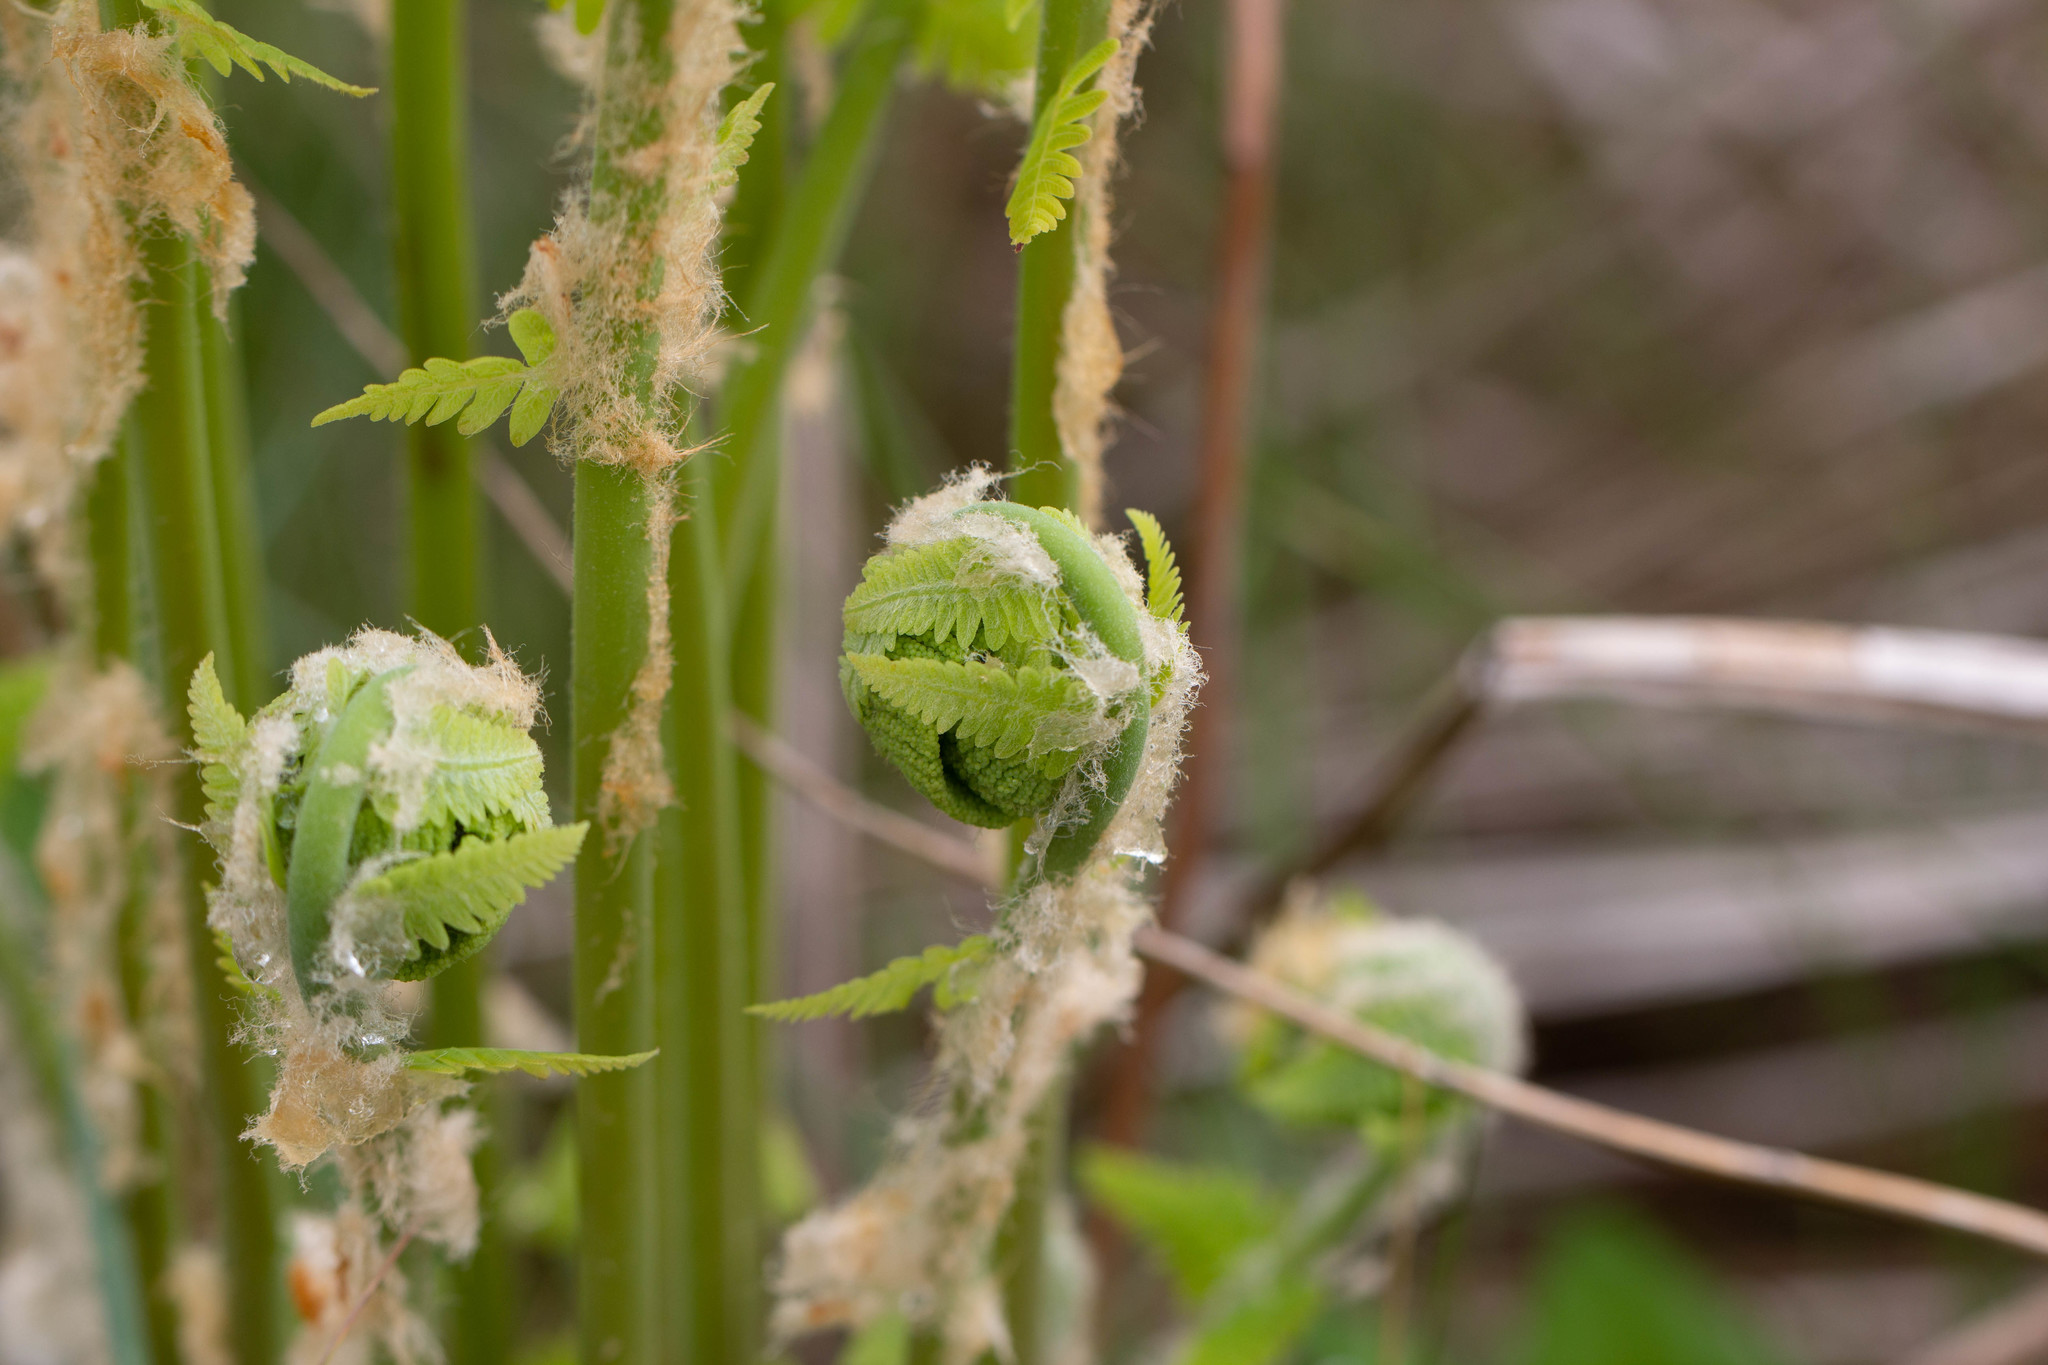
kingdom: Plantae
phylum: Tracheophyta
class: Polypodiopsida
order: Osmundales
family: Osmundaceae
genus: Claytosmunda
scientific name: Claytosmunda claytoniana
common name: Clayton's fern
